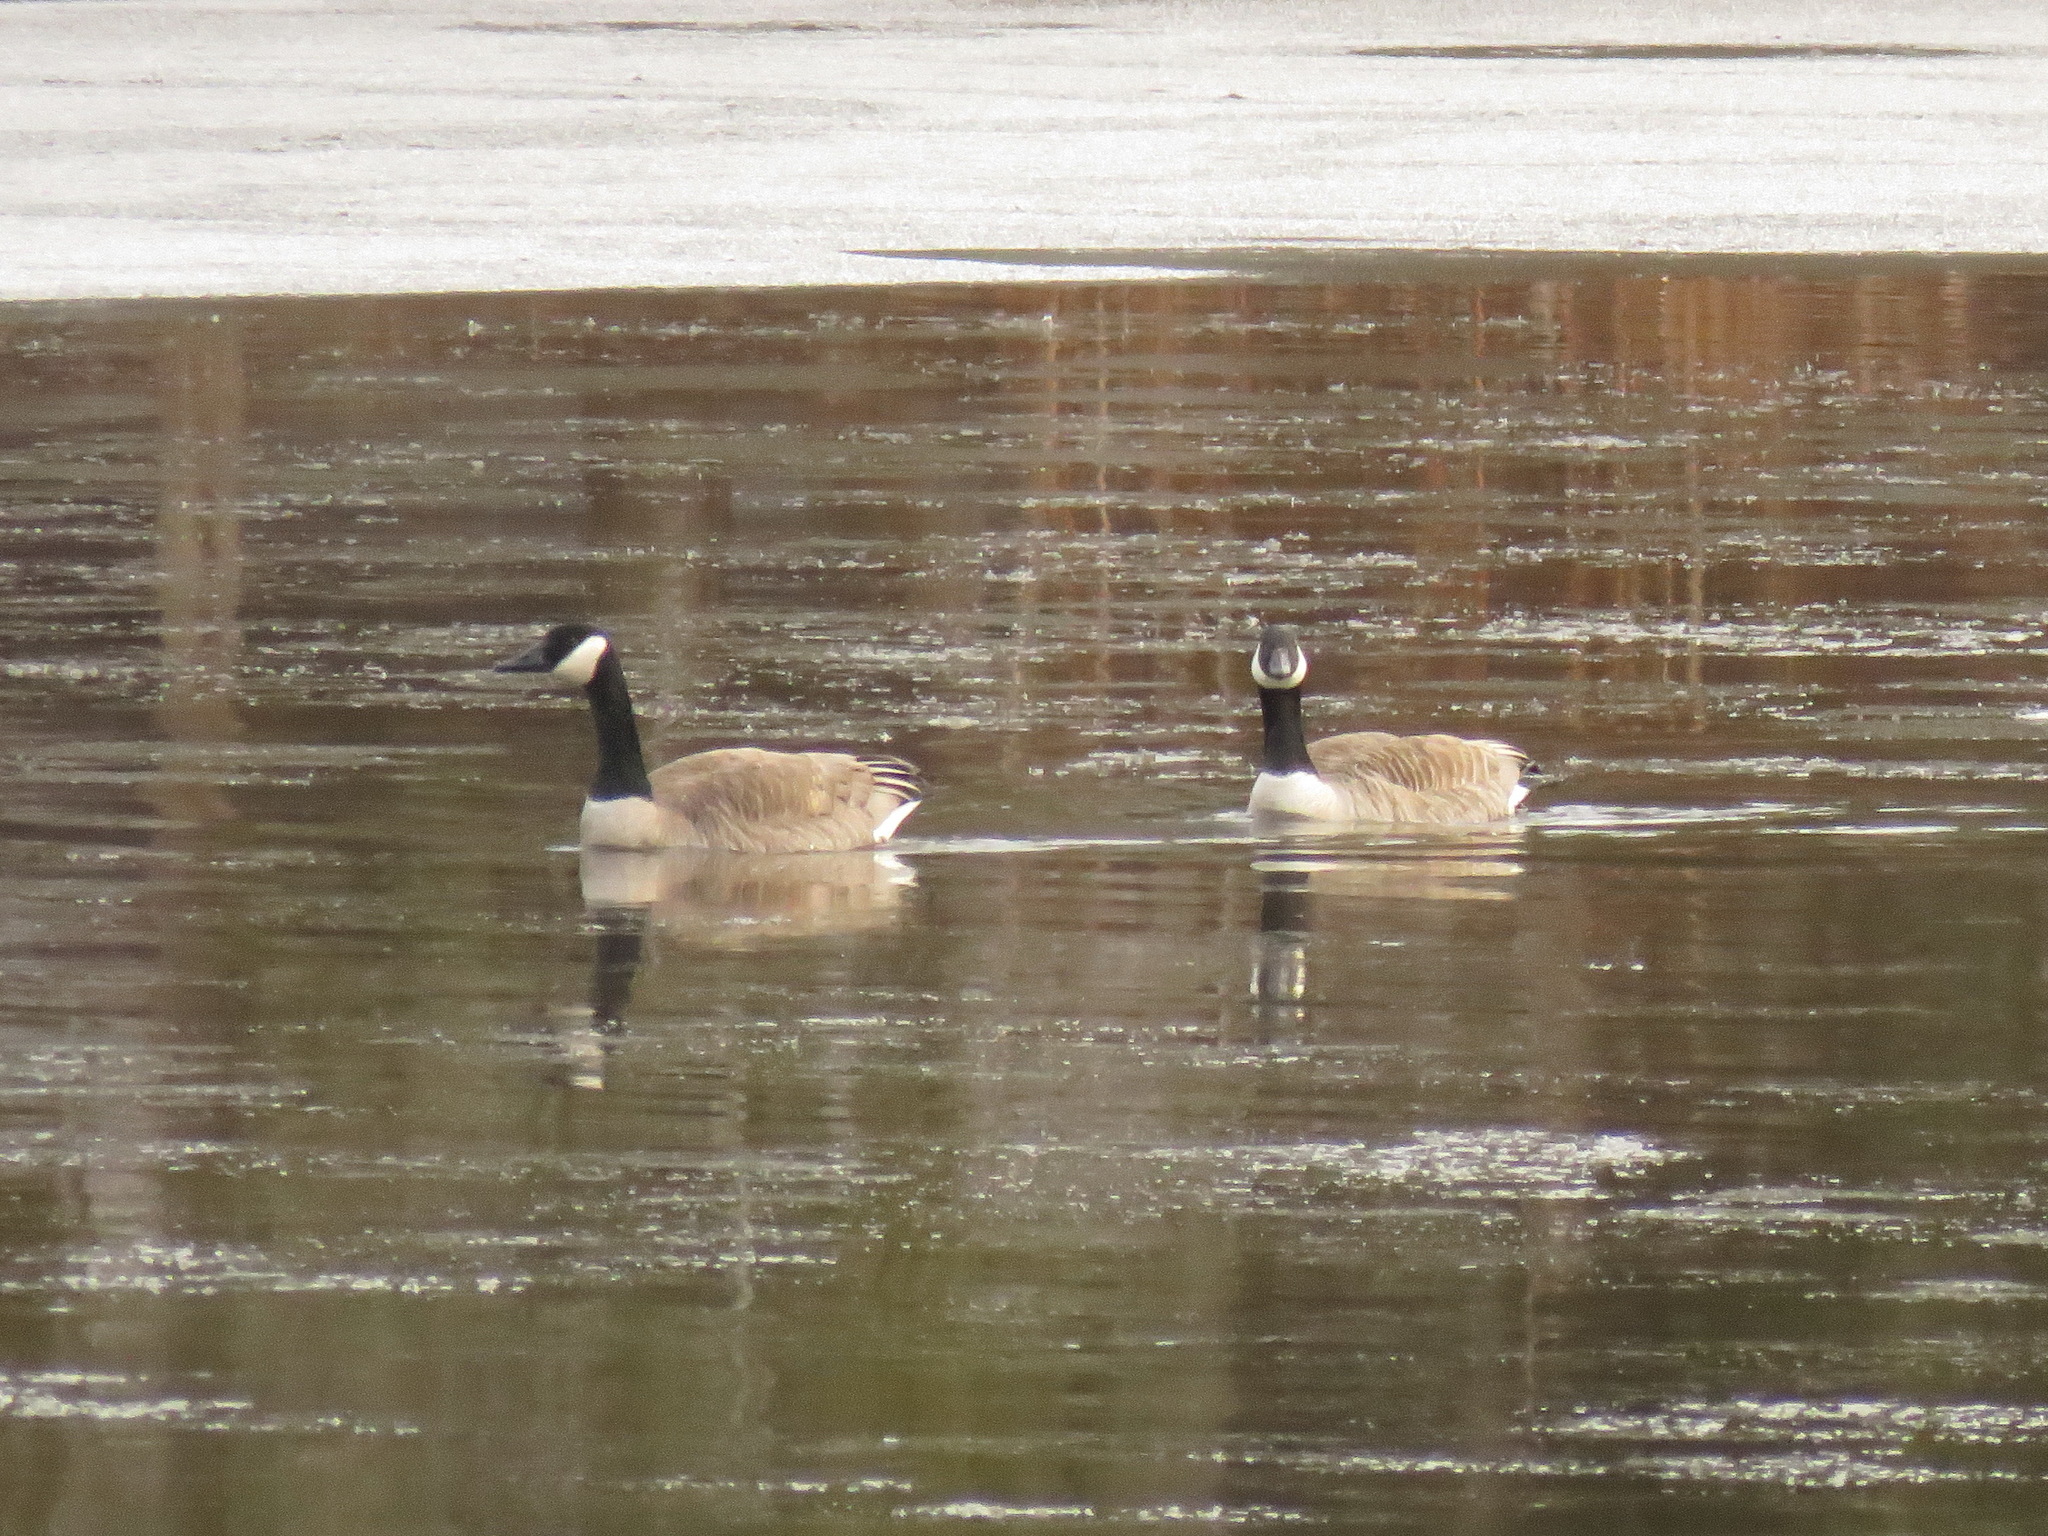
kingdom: Animalia
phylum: Chordata
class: Aves
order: Anseriformes
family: Anatidae
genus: Branta
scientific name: Branta canadensis
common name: Canada goose
